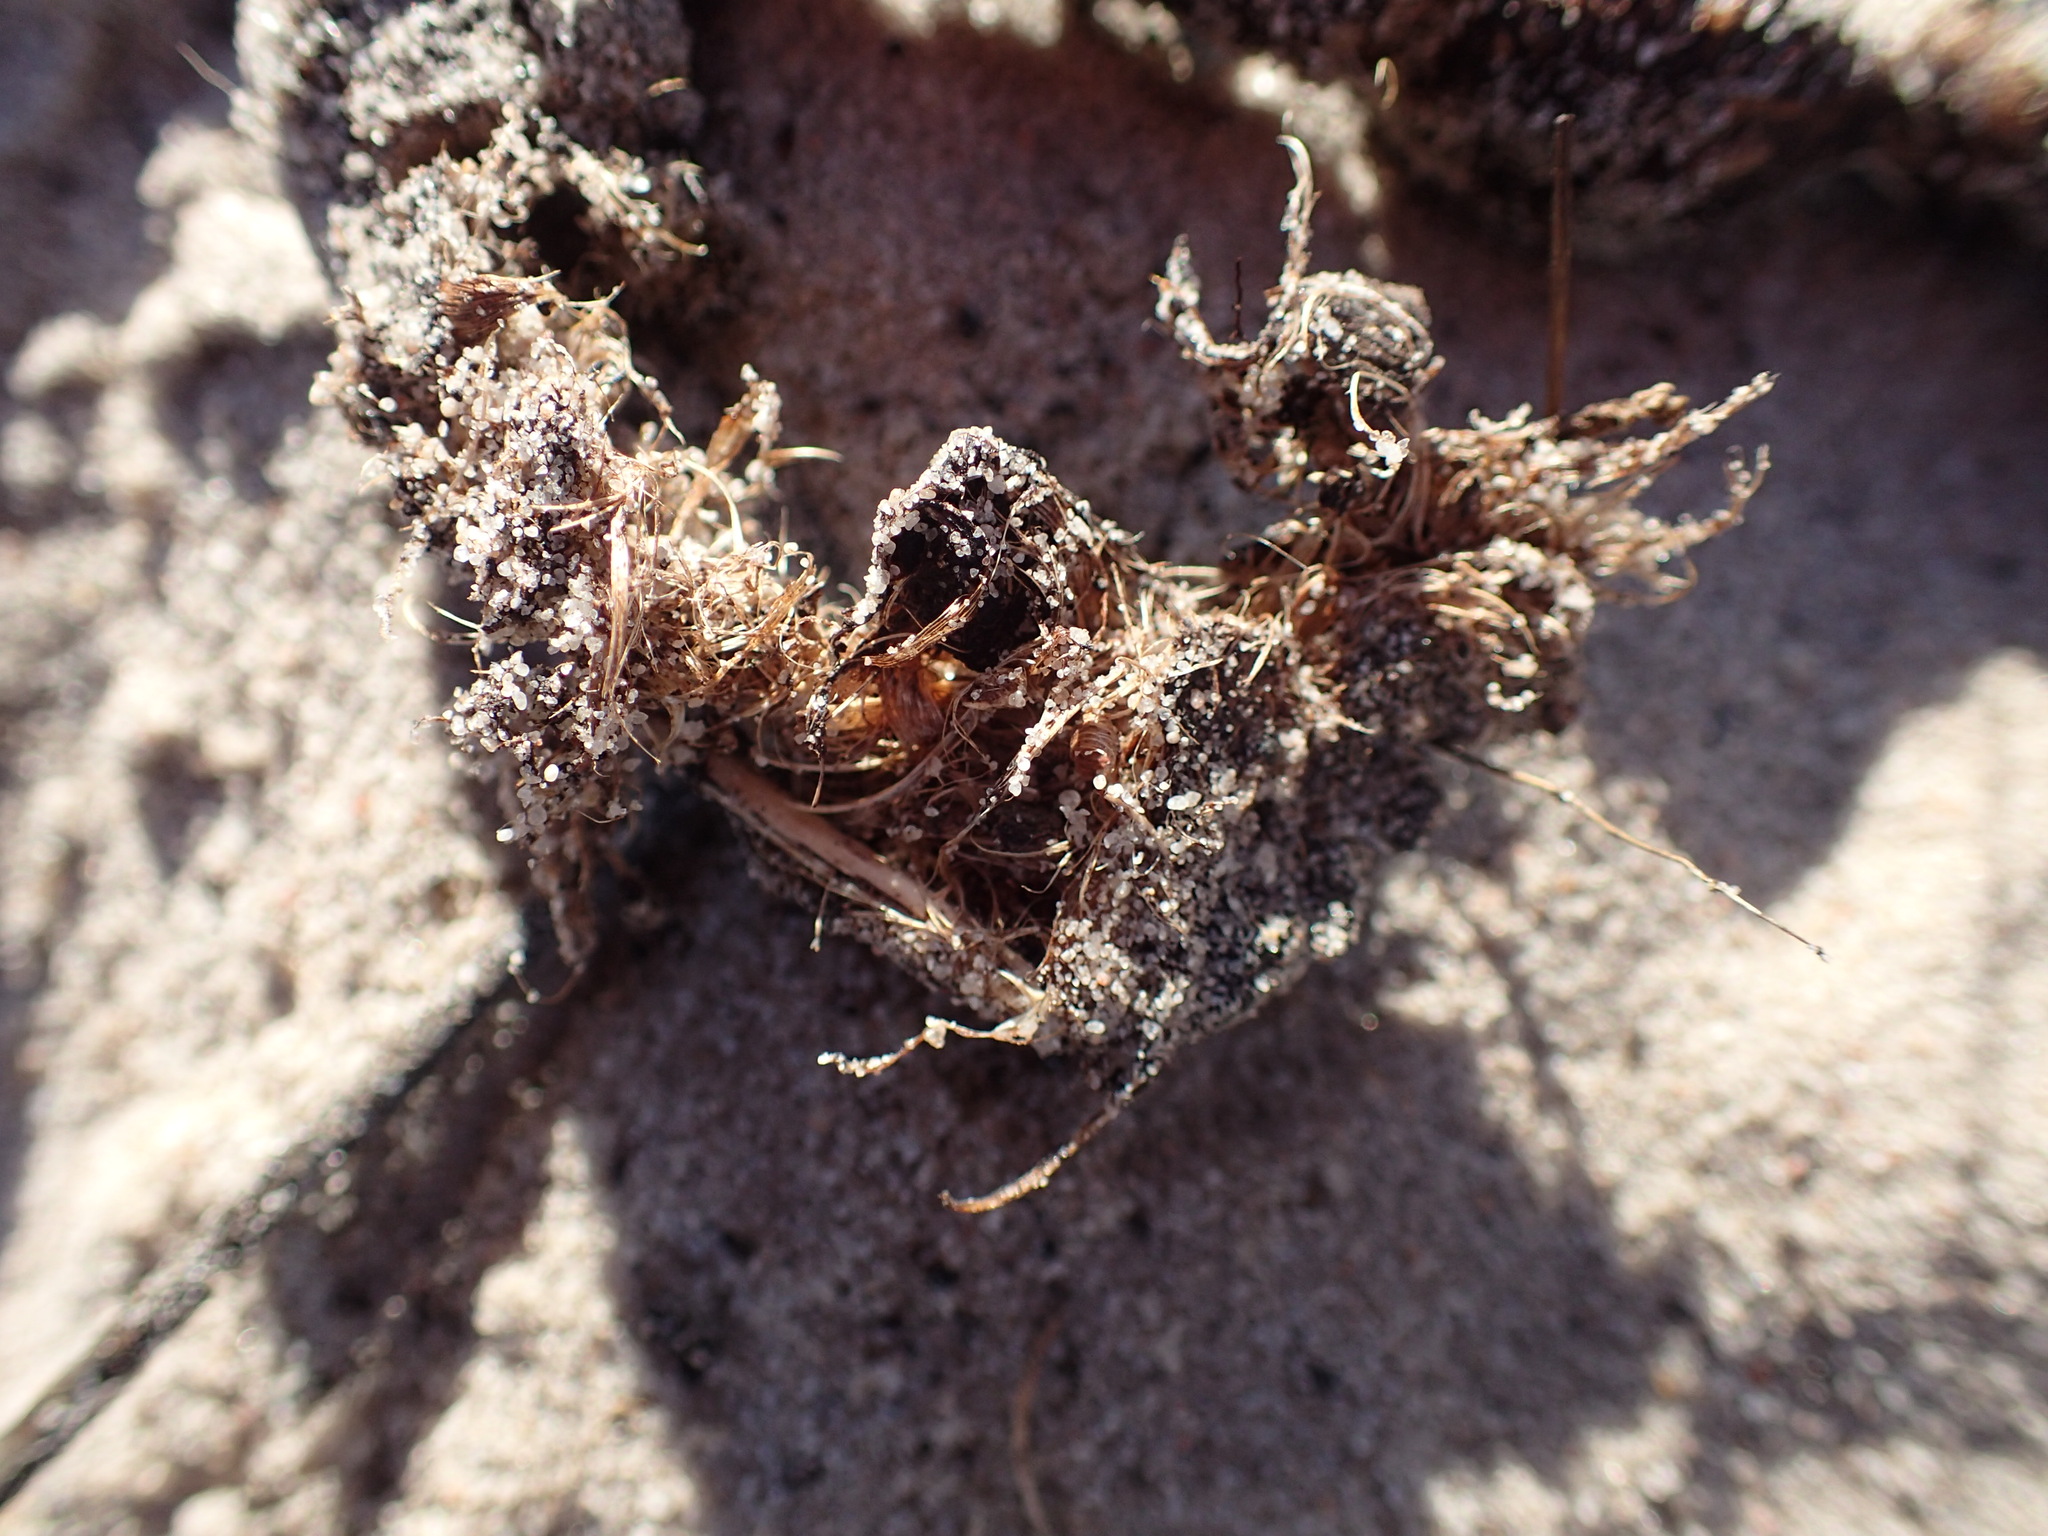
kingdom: Animalia
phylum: Chordata
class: Mammalia
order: Rodentia
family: Hystricidae
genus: Hystrix
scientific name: Hystrix africaeaustralis
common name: Cape porcupine
